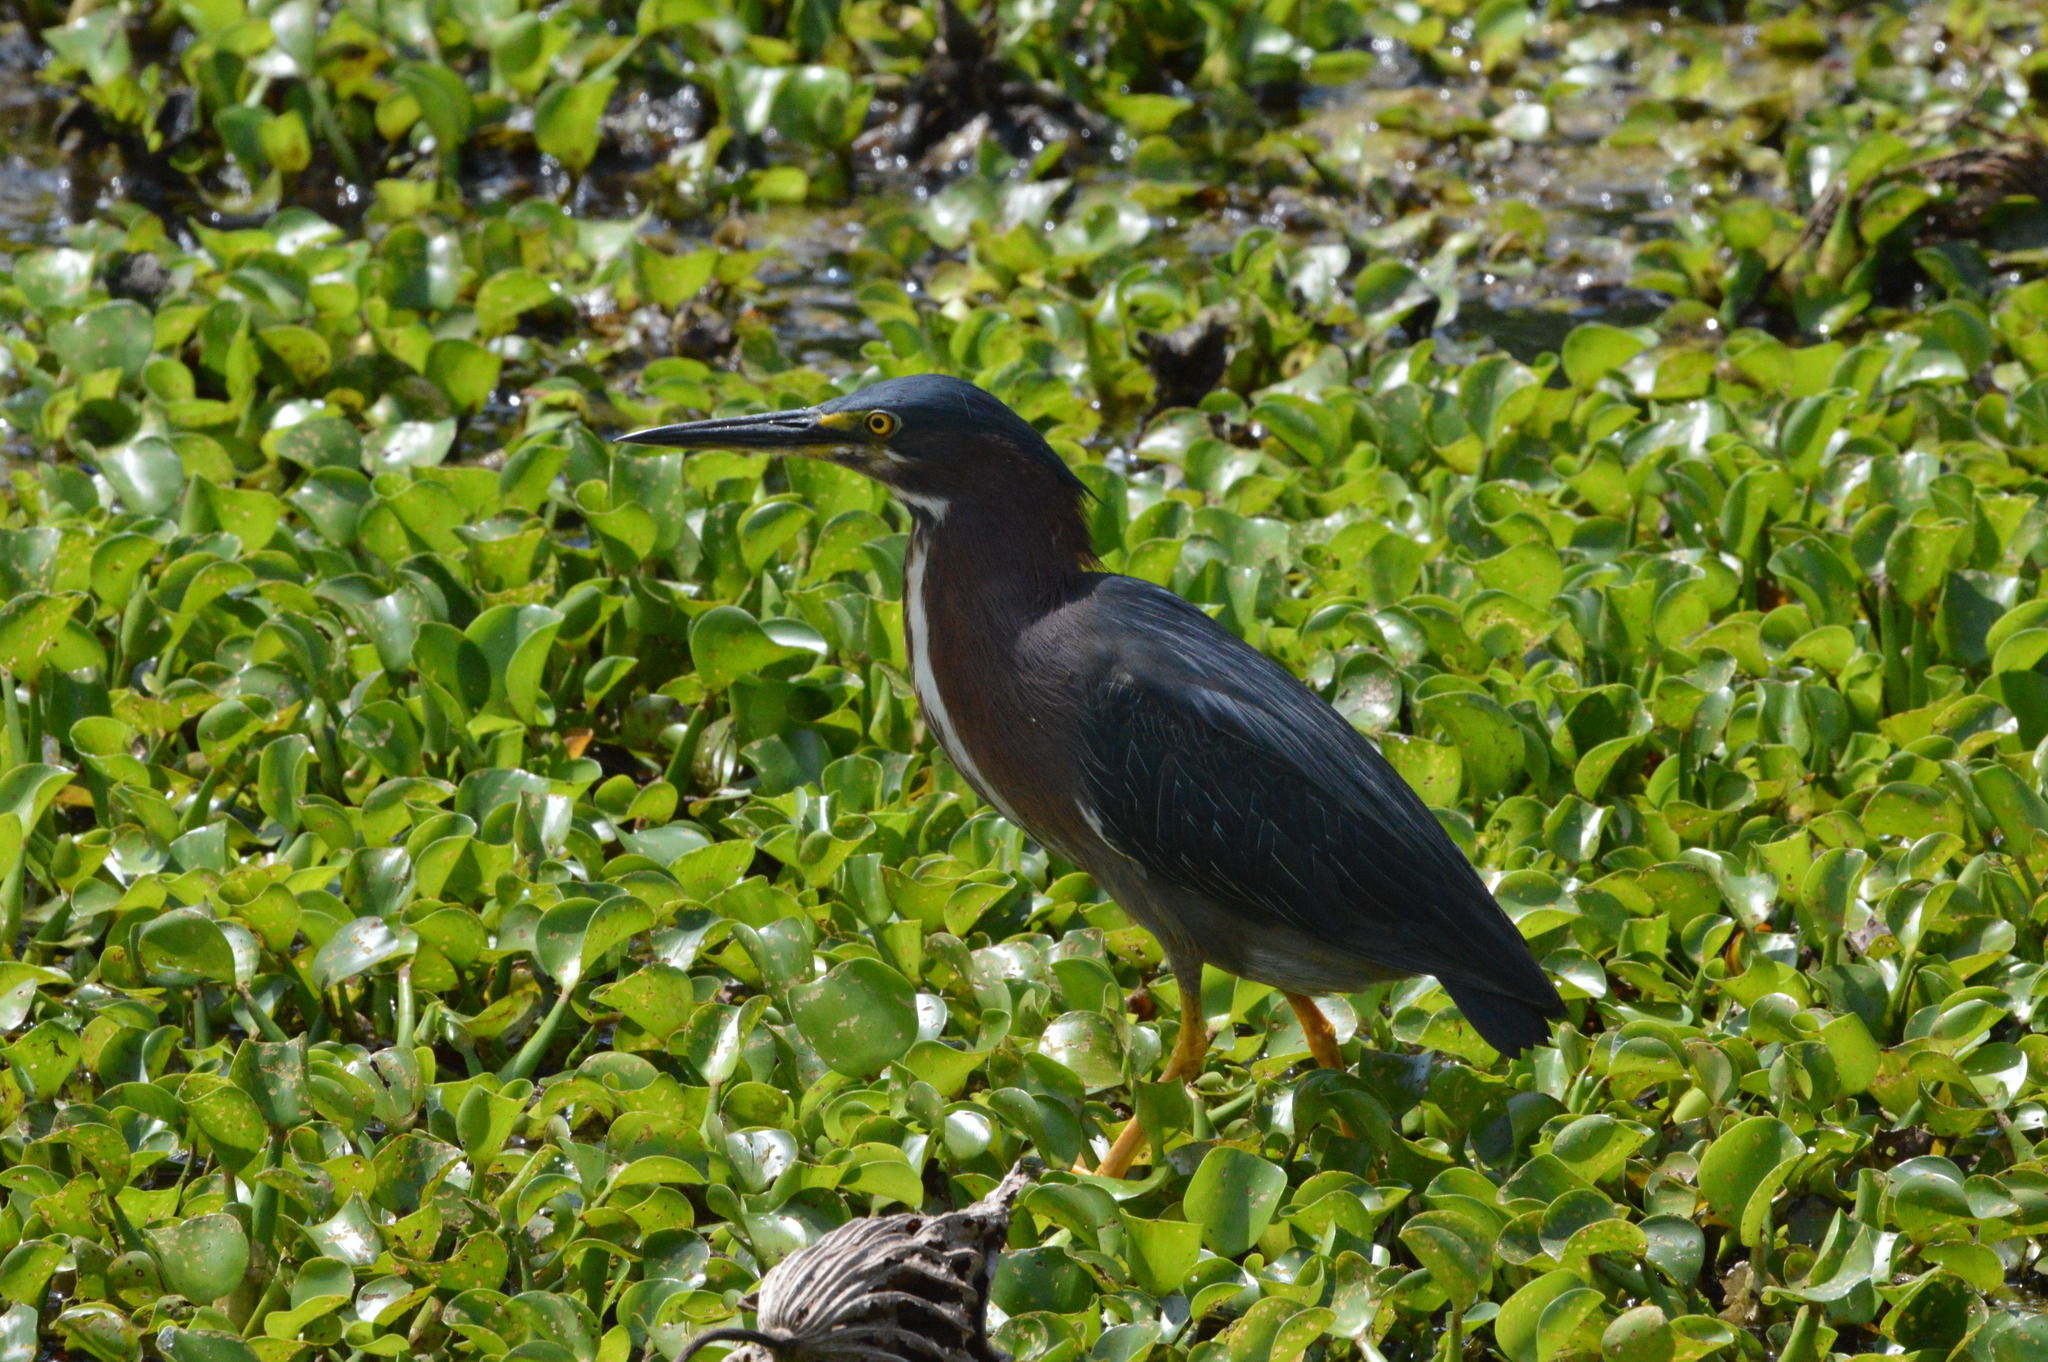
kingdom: Animalia
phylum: Chordata
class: Aves
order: Pelecaniformes
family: Ardeidae
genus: Butorides
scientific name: Butorides virescens
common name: Green heron
